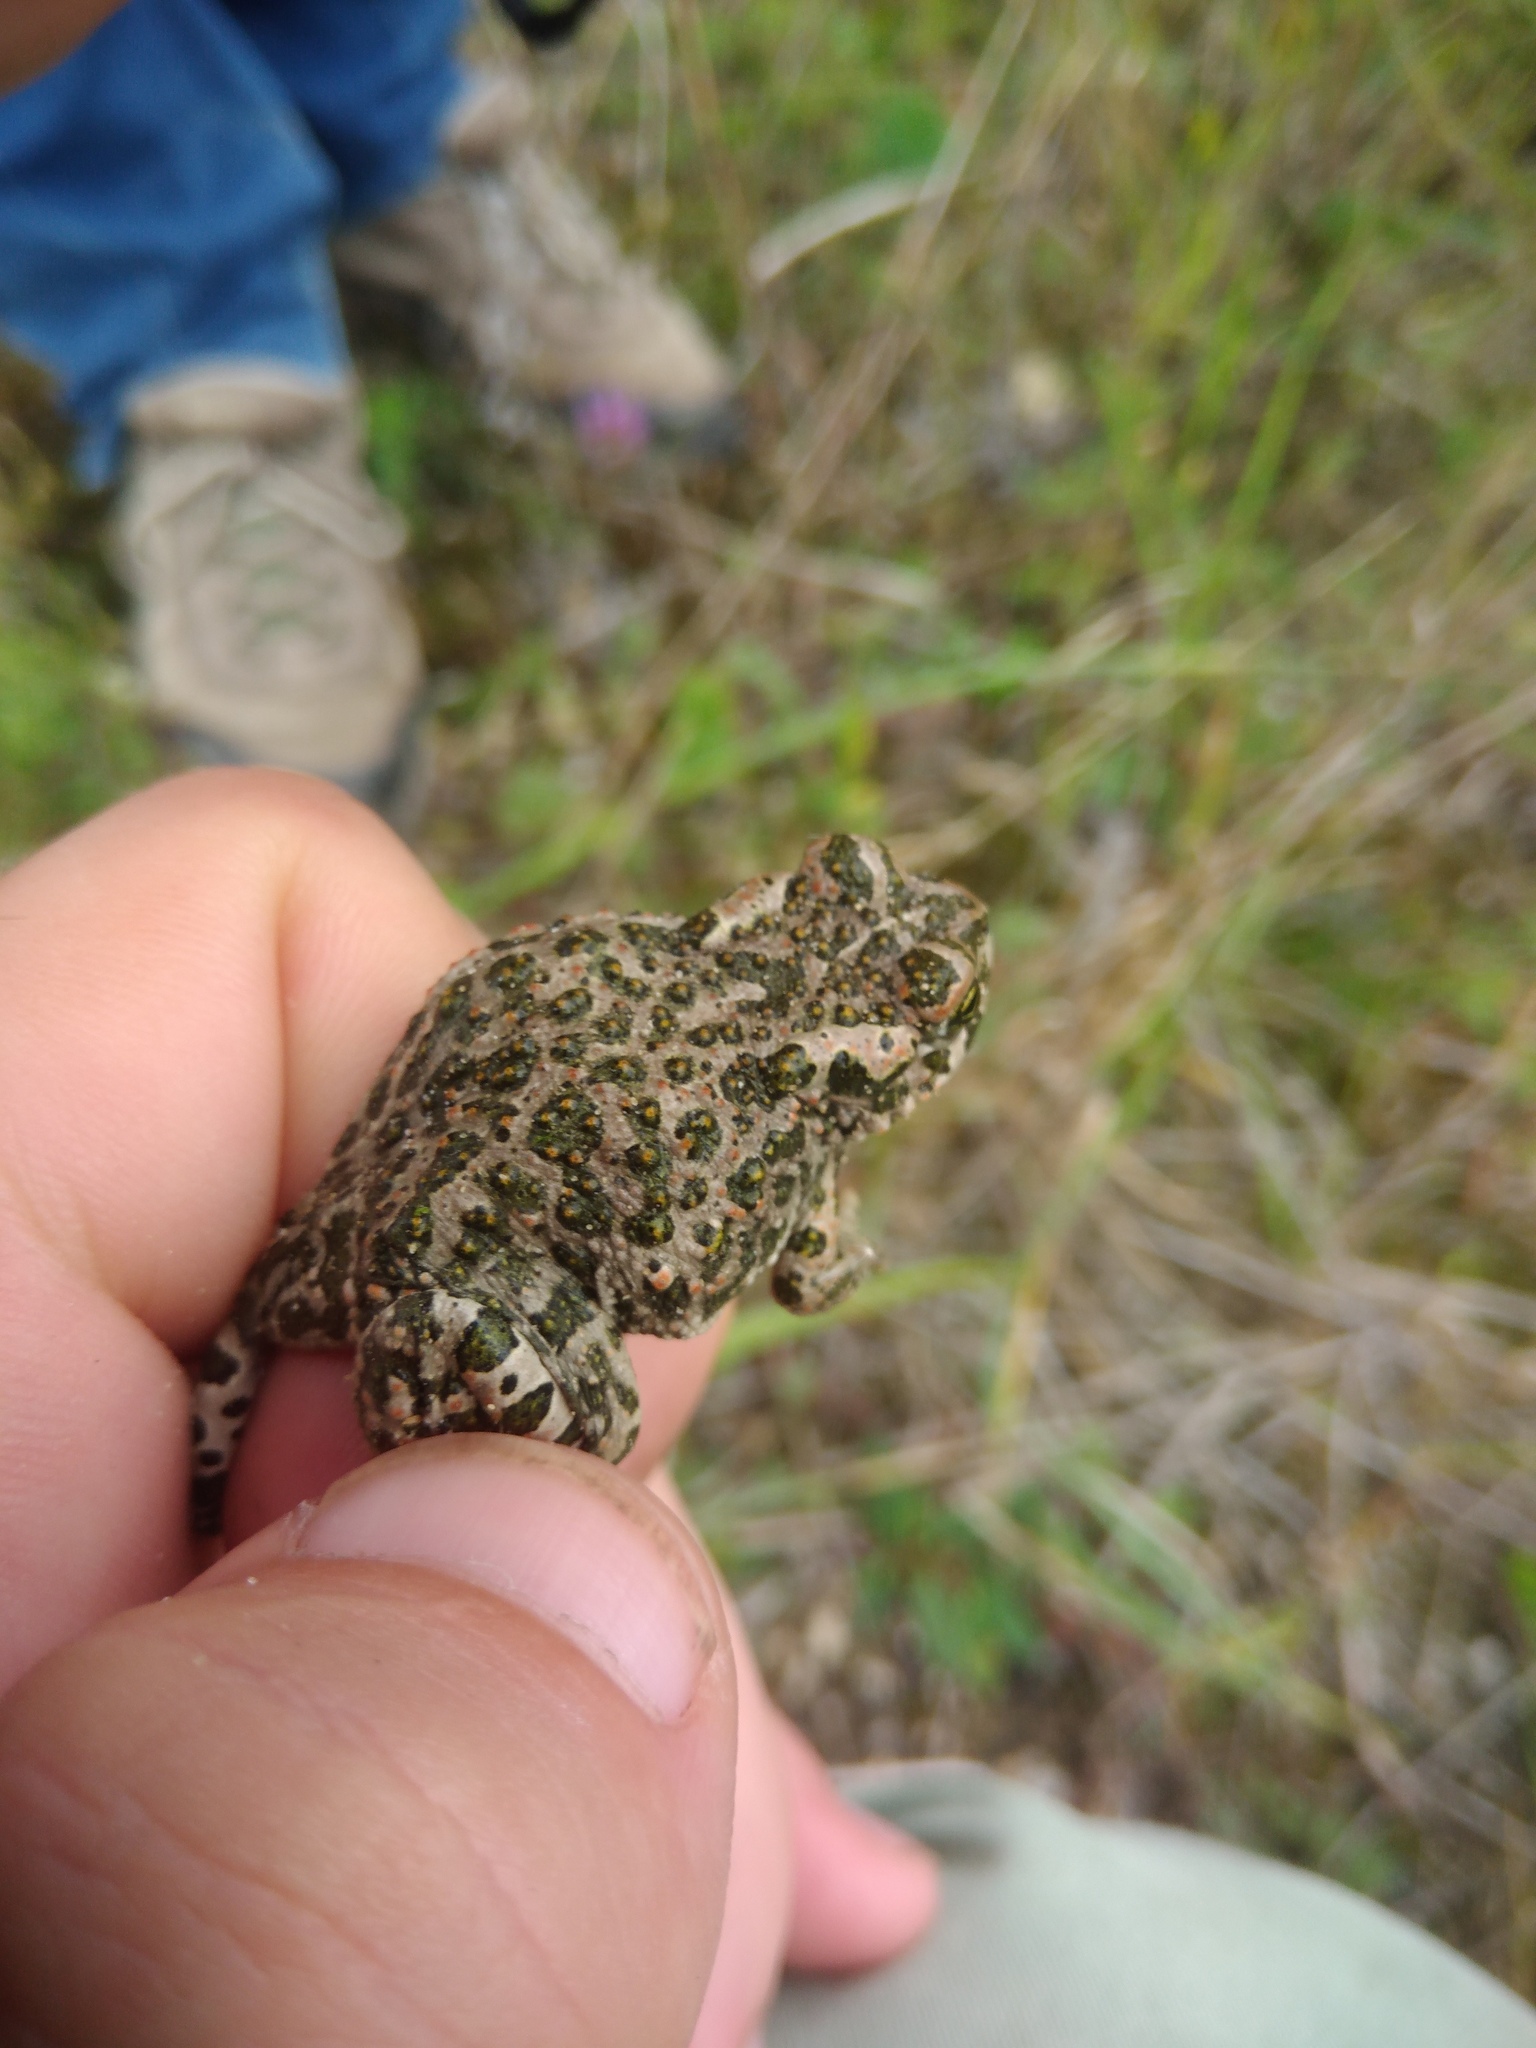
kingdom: Animalia
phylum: Chordata
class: Amphibia
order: Anura
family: Bufonidae
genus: Bufotes
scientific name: Bufotes viridis
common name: European green toad
